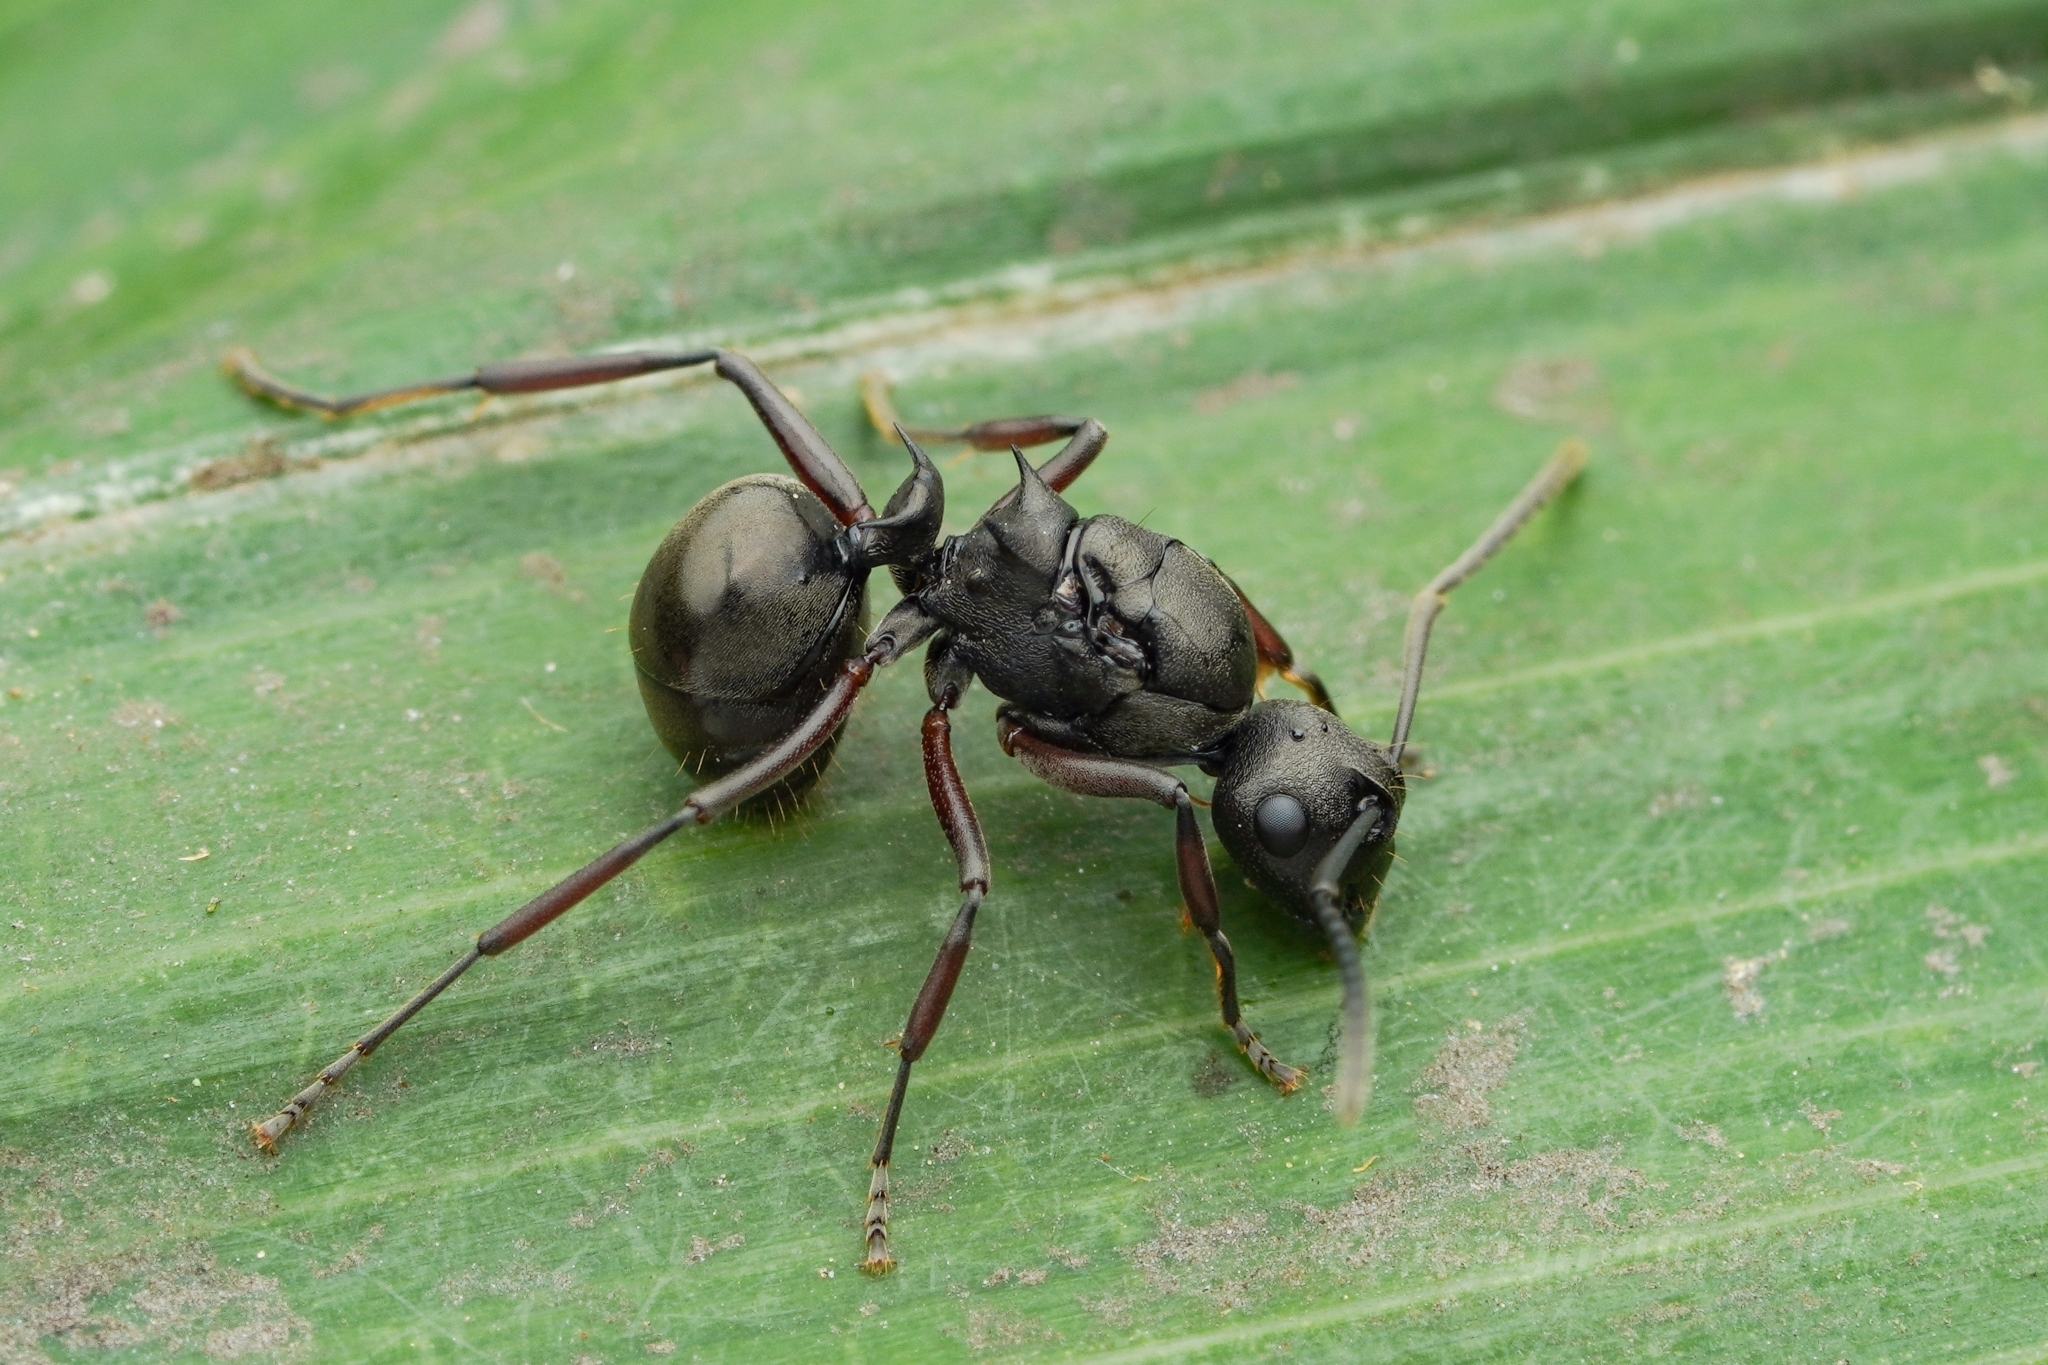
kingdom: Animalia
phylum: Arthropoda
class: Insecta
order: Hymenoptera
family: Formicidae
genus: Polyrhachis
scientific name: Polyrhachis moesta
